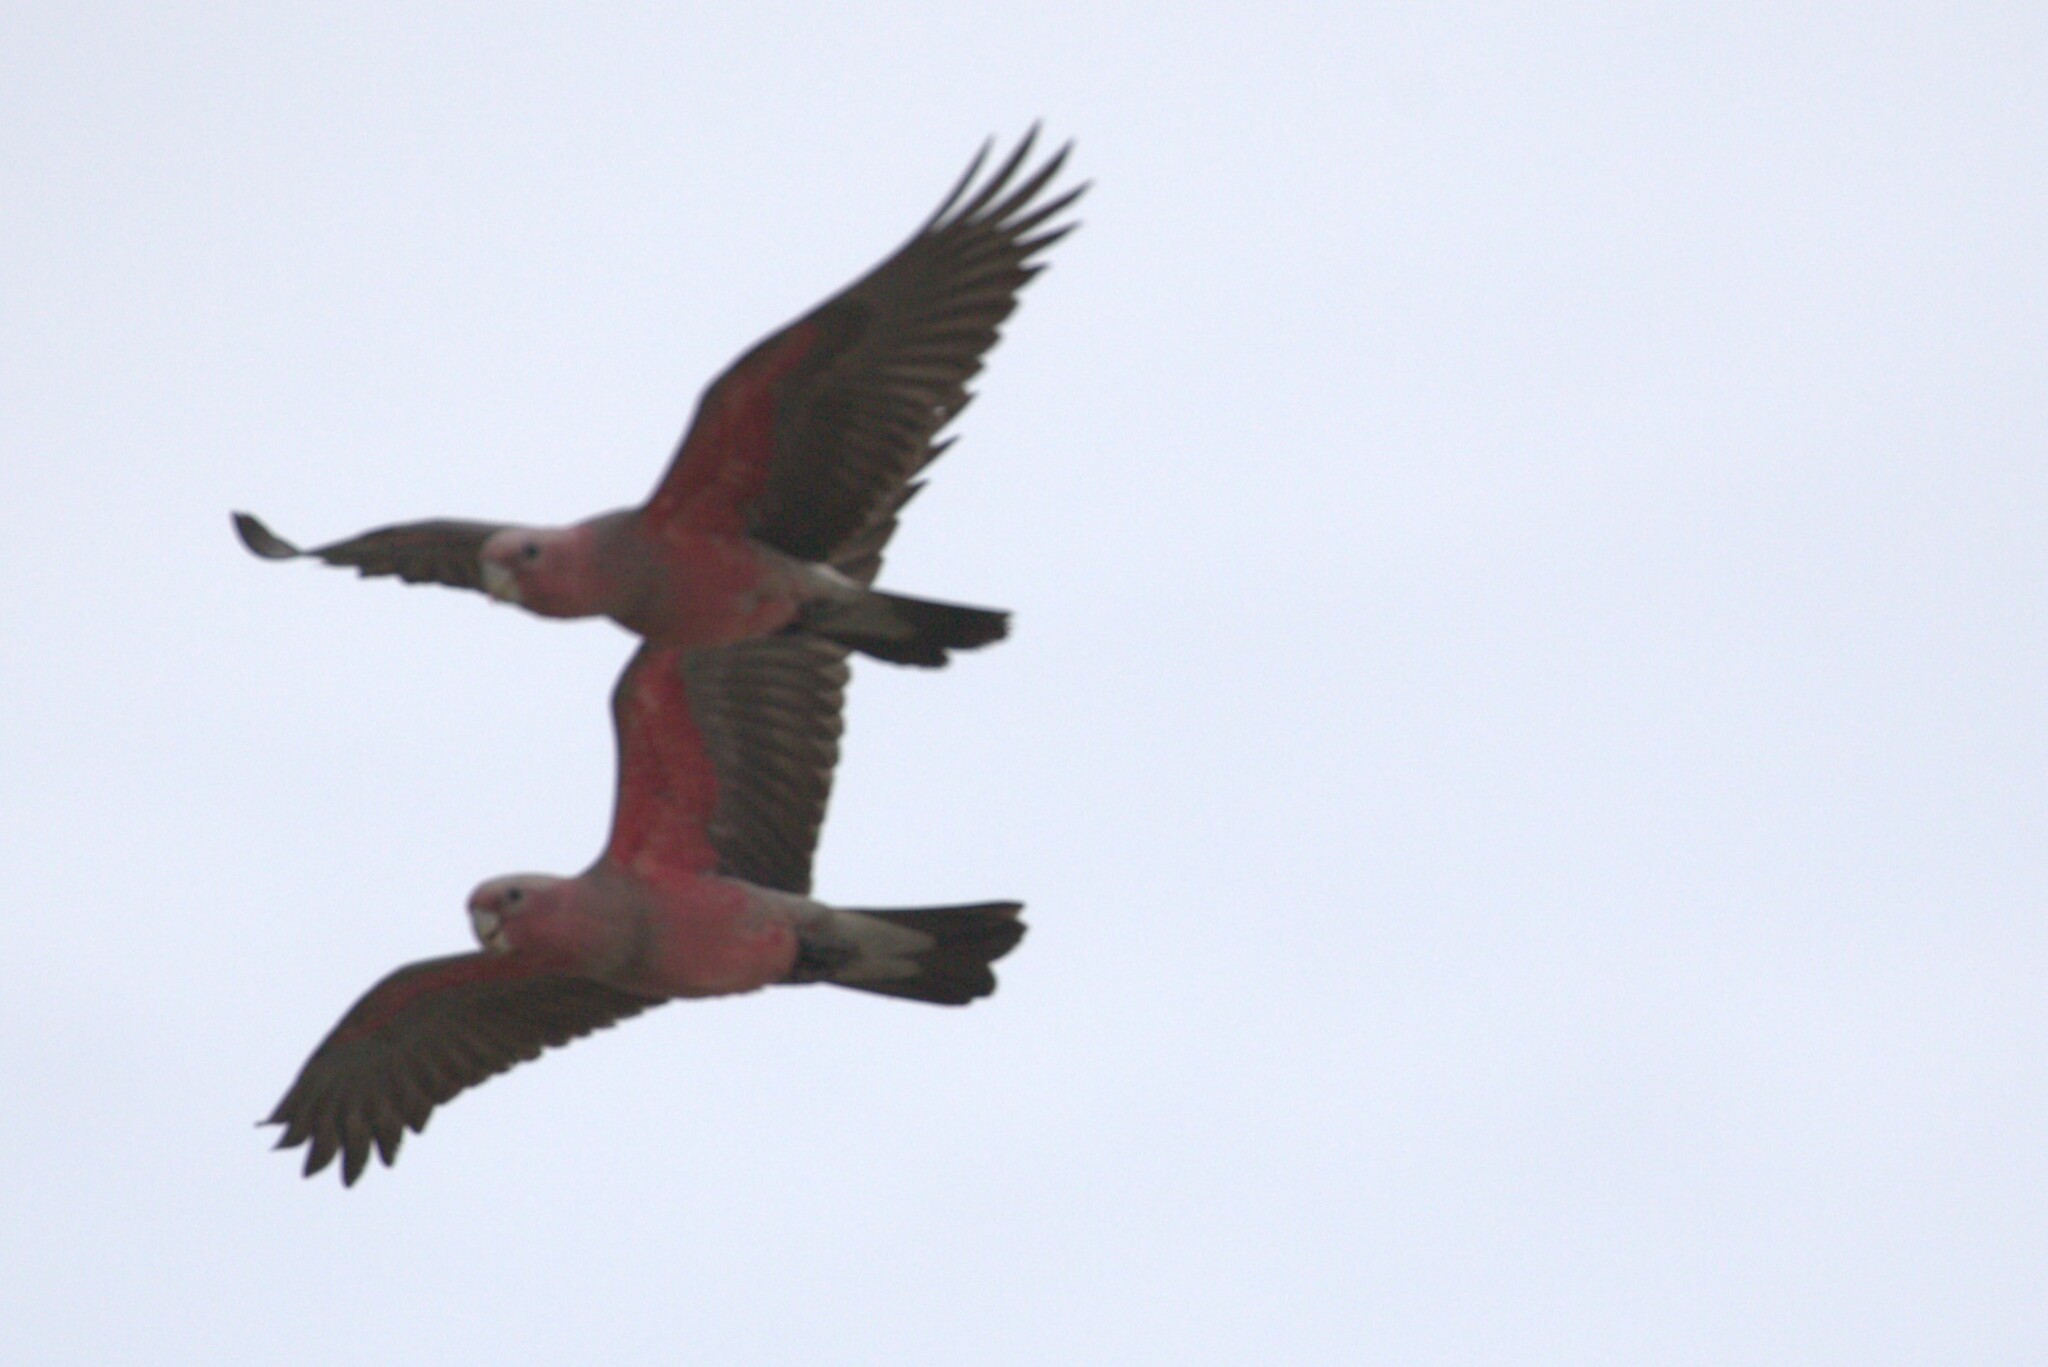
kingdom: Animalia
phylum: Chordata
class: Aves
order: Psittaciformes
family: Psittacidae
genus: Eolophus
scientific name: Eolophus roseicapilla
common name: Galah
